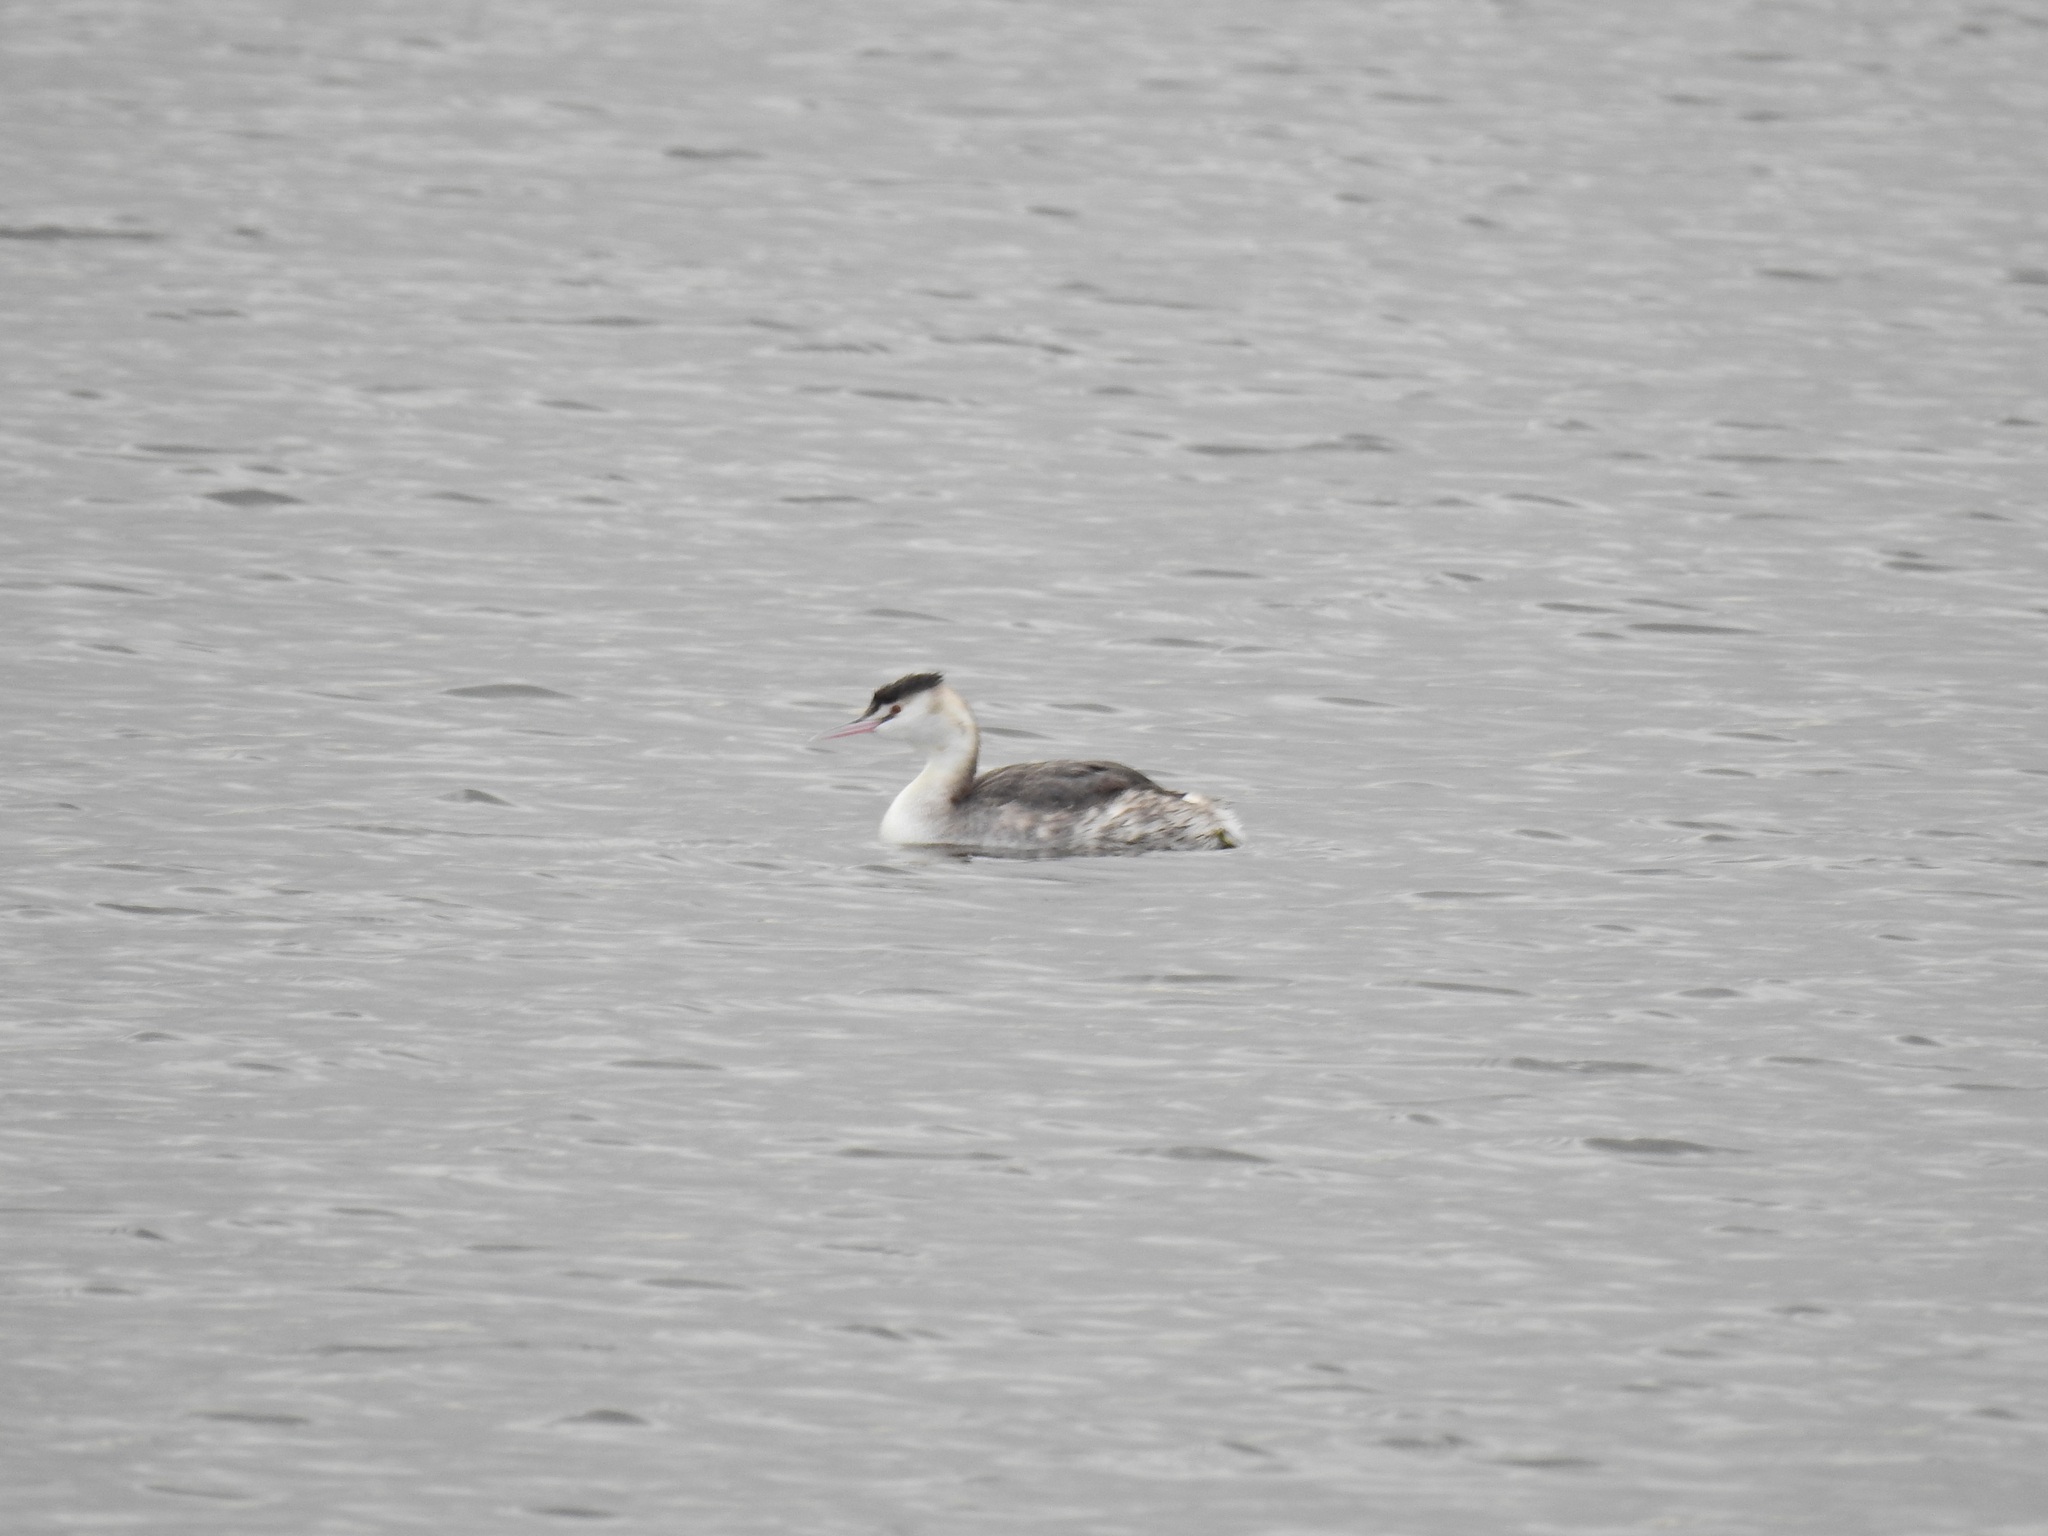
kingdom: Animalia
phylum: Chordata
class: Aves
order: Podicipediformes
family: Podicipedidae
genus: Podiceps
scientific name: Podiceps cristatus
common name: Great crested grebe
